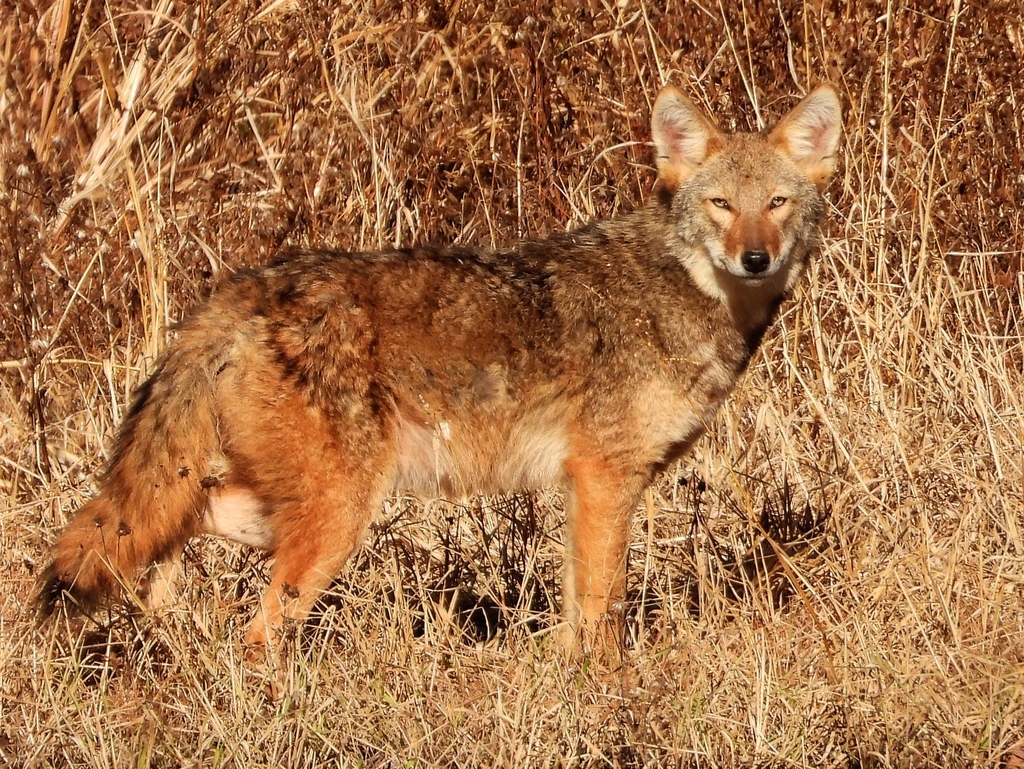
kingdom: Animalia
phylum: Chordata
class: Mammalia
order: Carnivora
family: Canidae
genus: Canis
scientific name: Canis latrans
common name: Coyote
